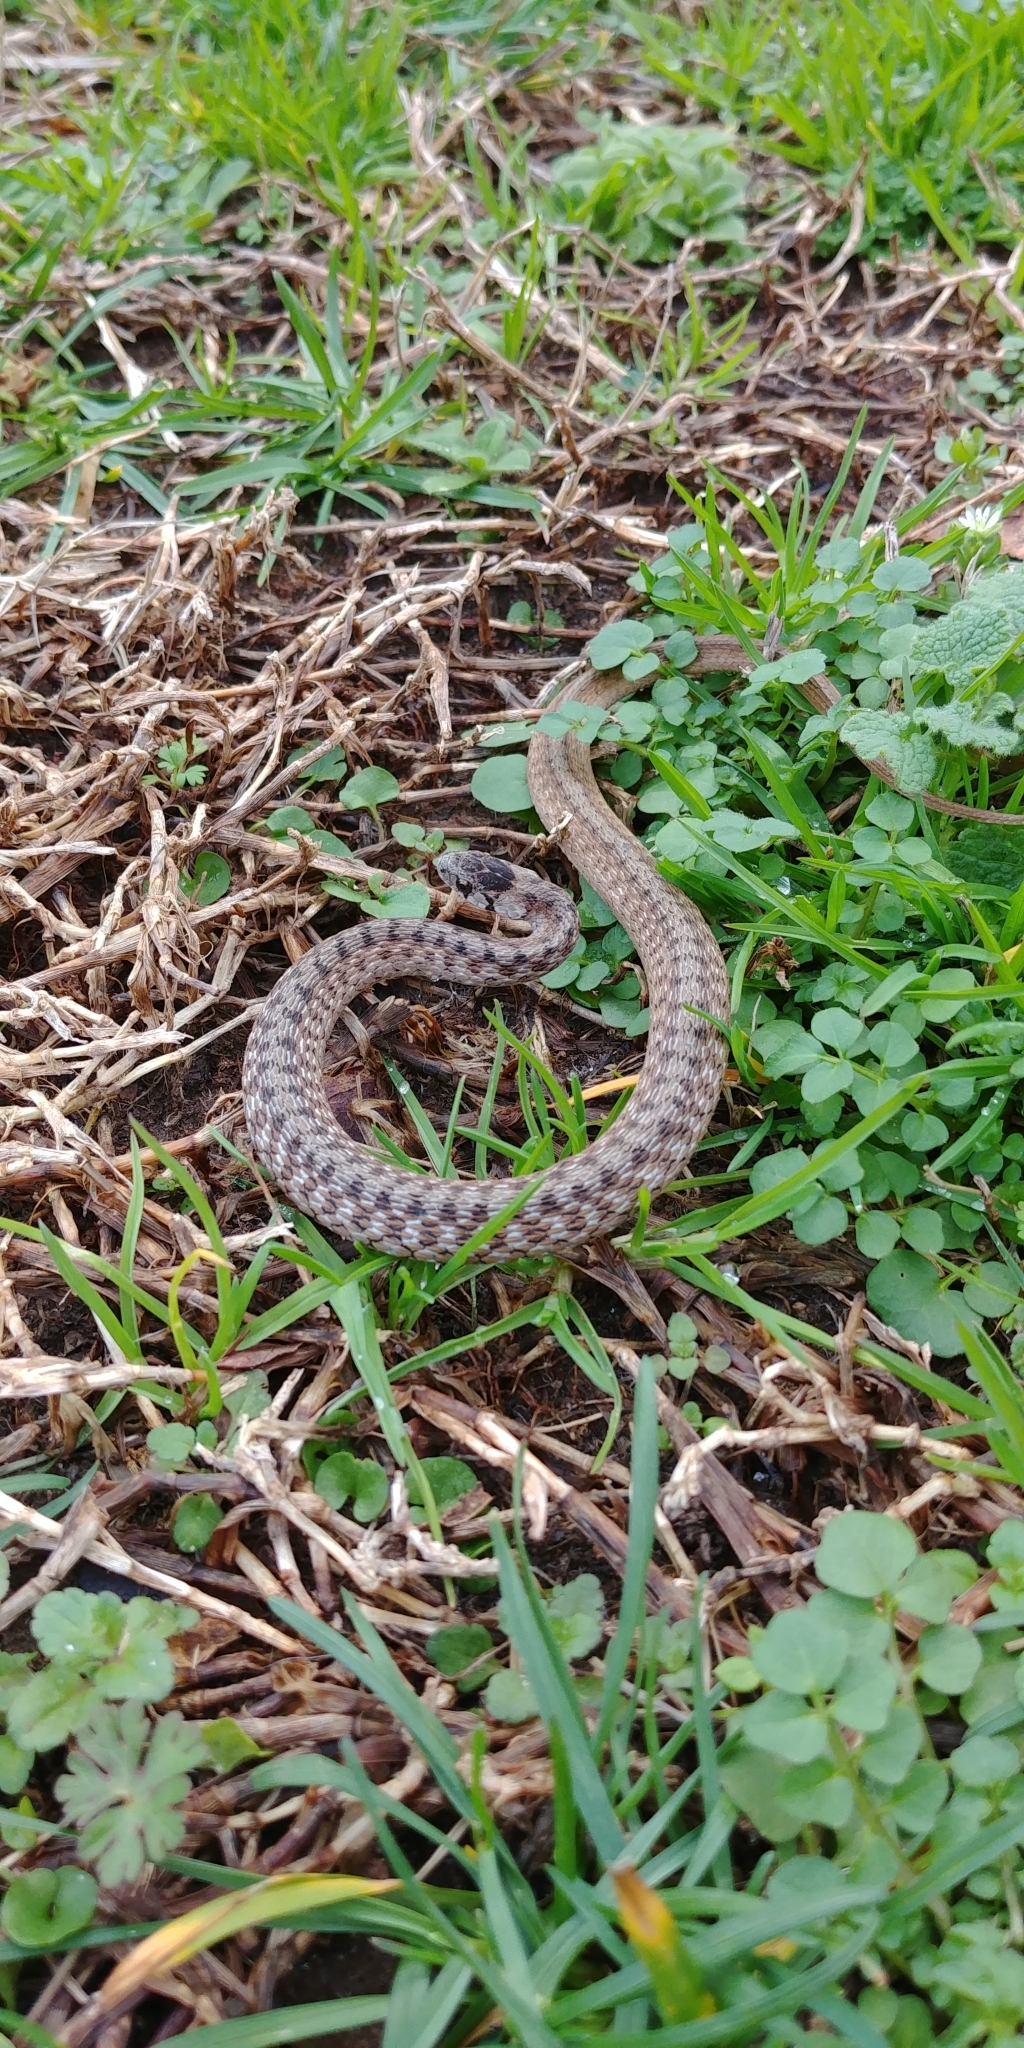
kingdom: Animalia
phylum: Chordata
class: Squamata
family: Colubridae
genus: Storeria
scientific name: Storeria dekayi
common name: (dekay’s) brown snake
